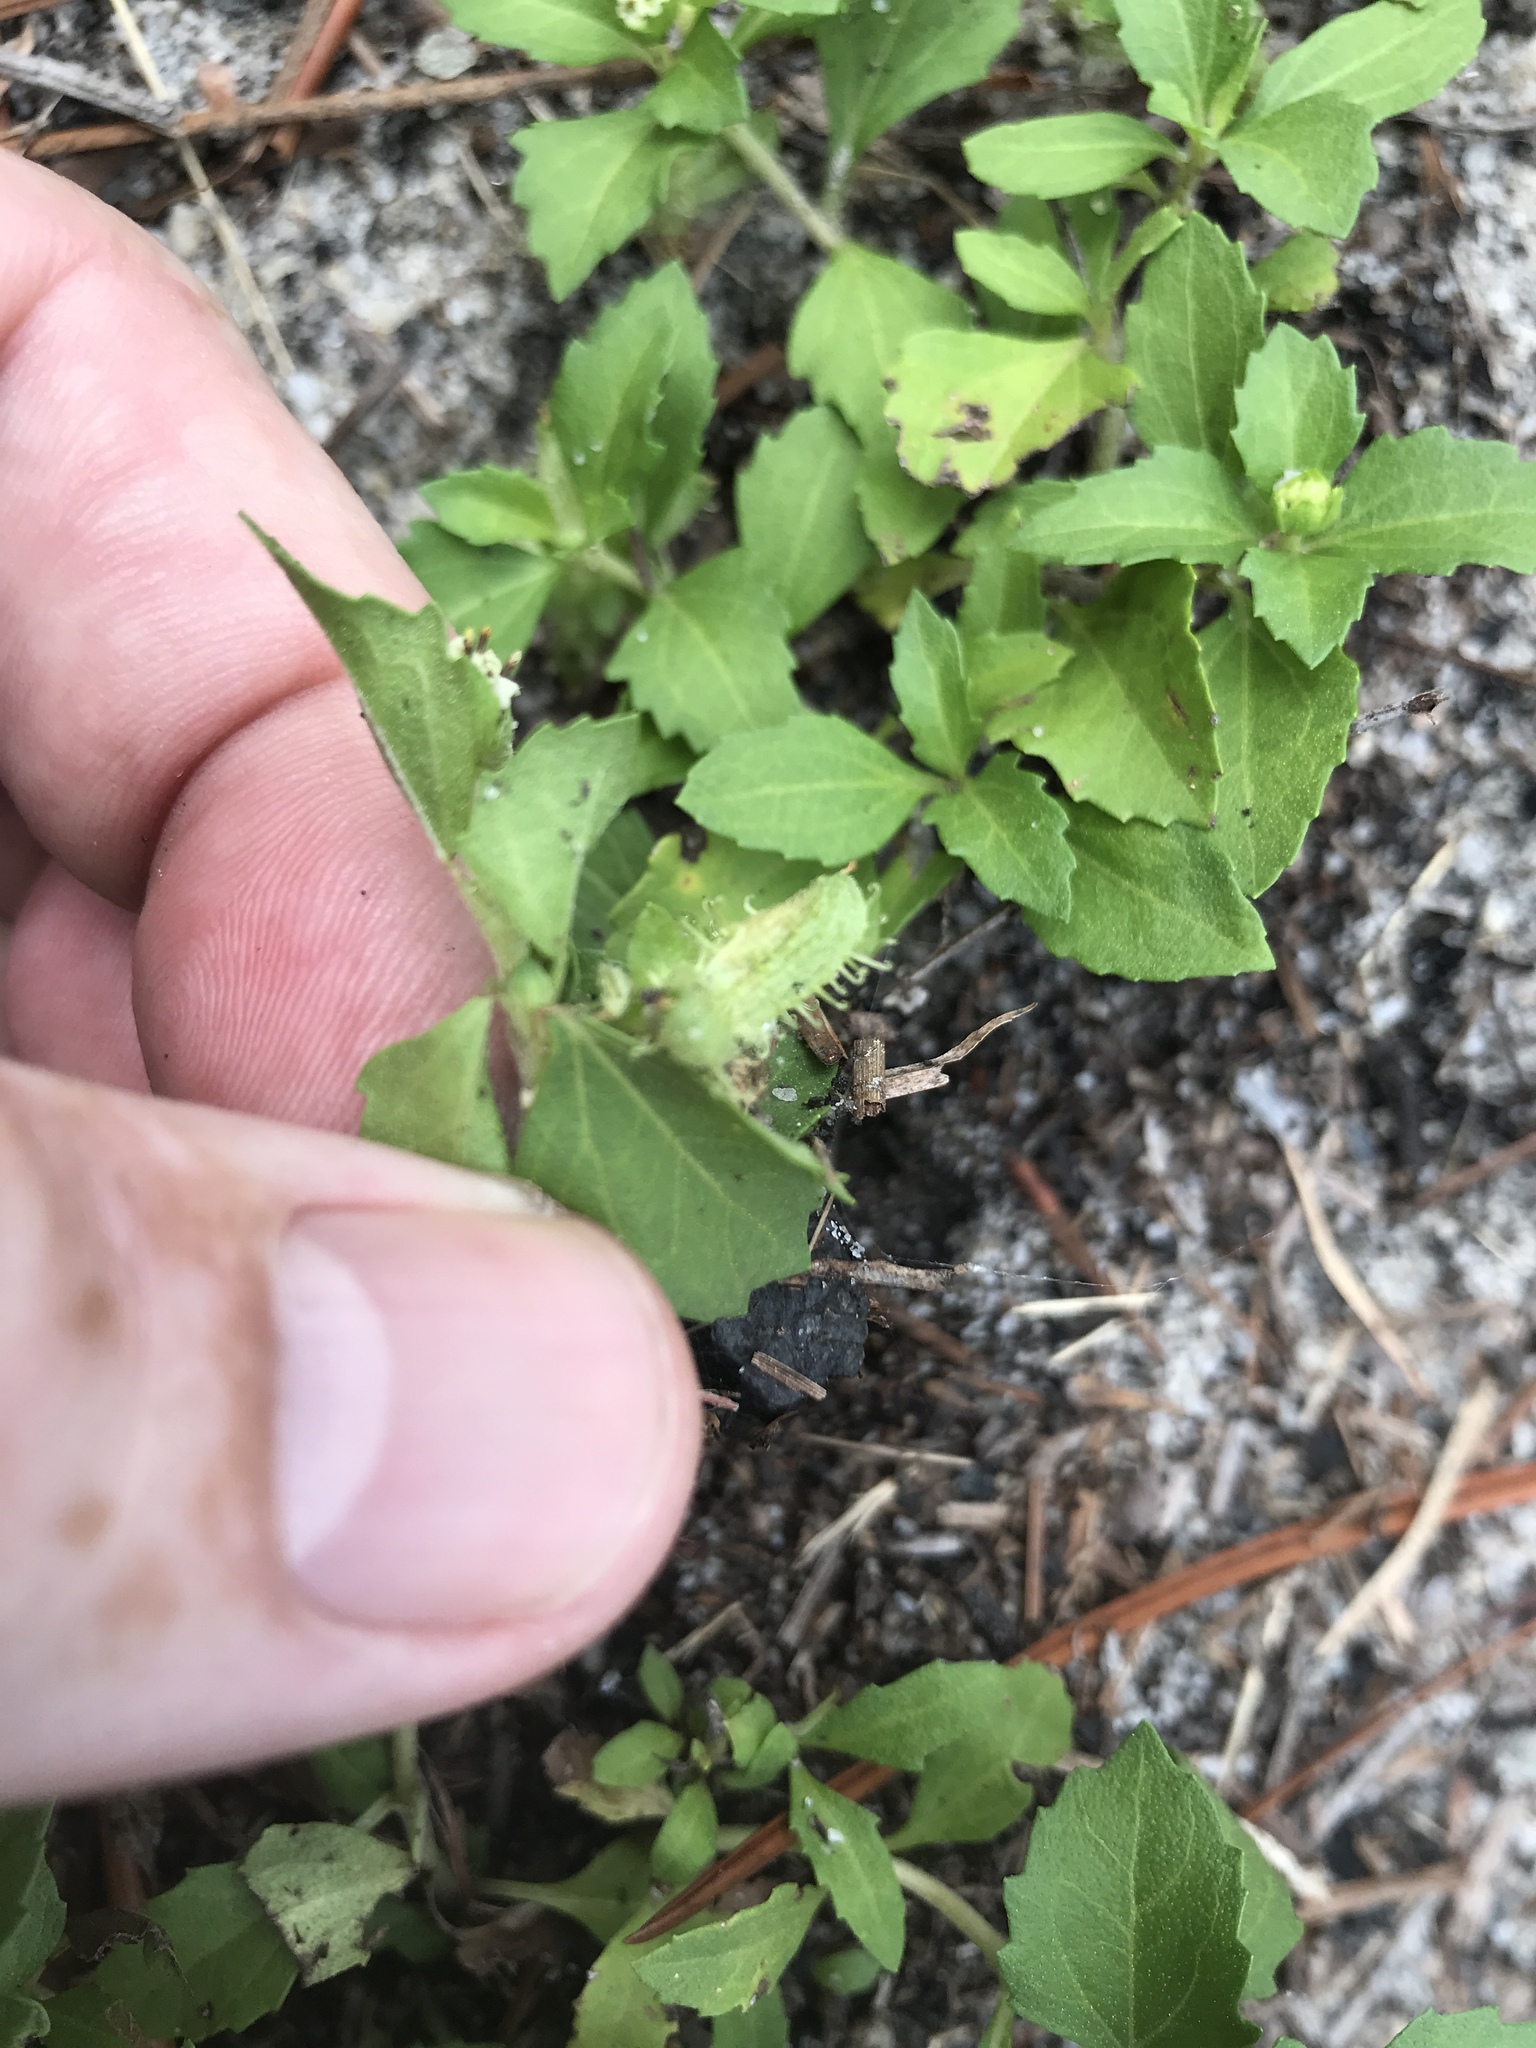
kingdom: Plantae
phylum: Tracheophyta
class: Magnoliopsida
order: Asterales
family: Asteraceae
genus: Acanthospermum
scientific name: Acanthospermum australe
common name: Paraguayan starbur
